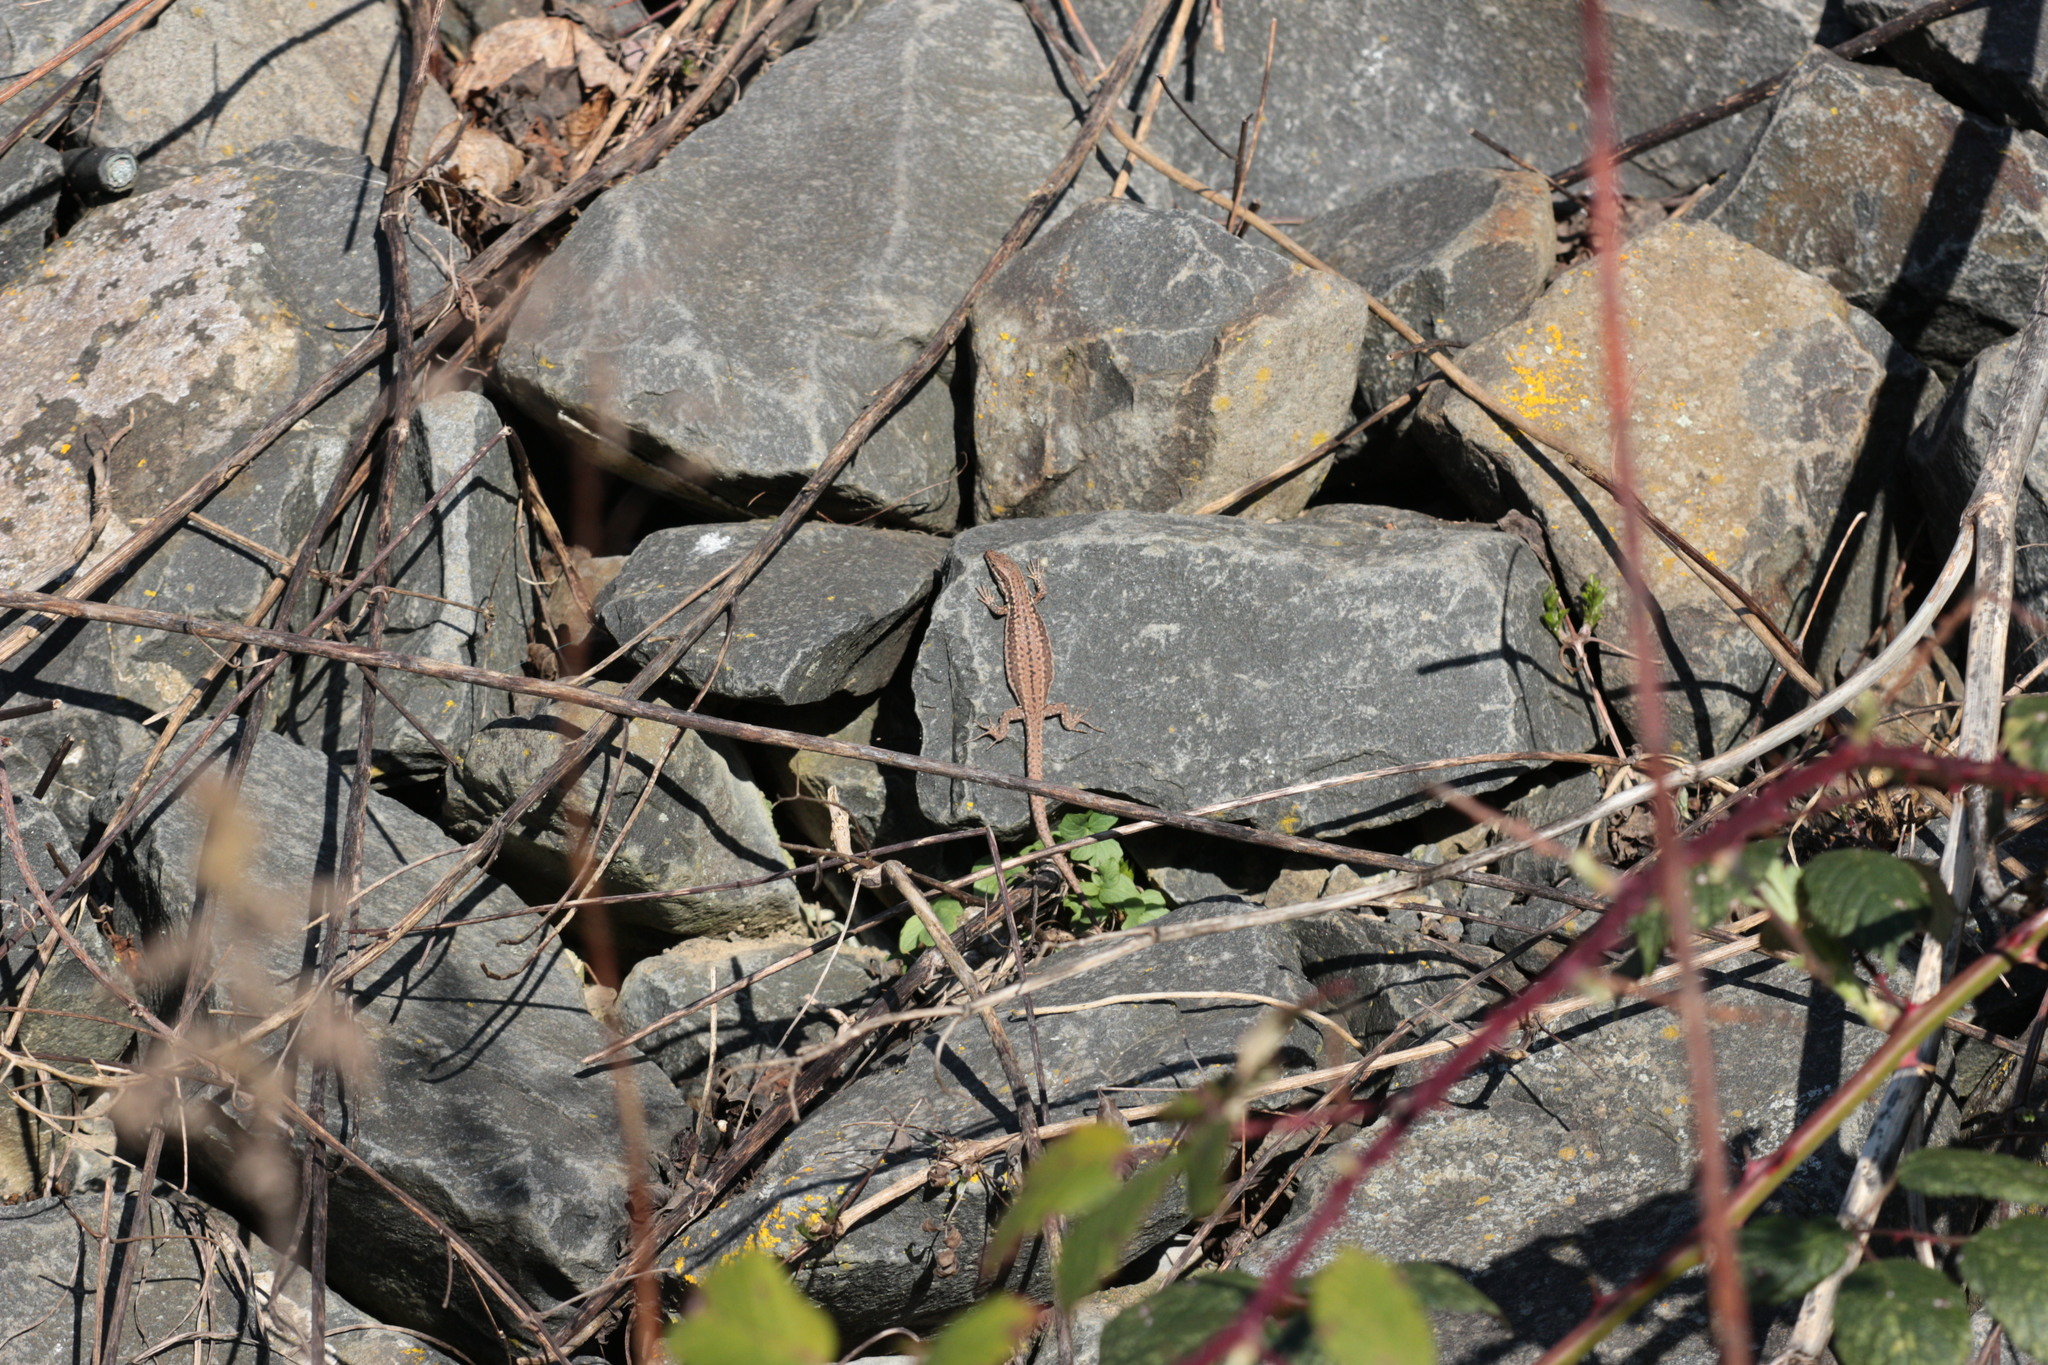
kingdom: Animalia
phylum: Chordata
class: Squamata
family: Lacertidae
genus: Podarcis
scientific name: Podarcis muralis
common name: Common wall lizard
